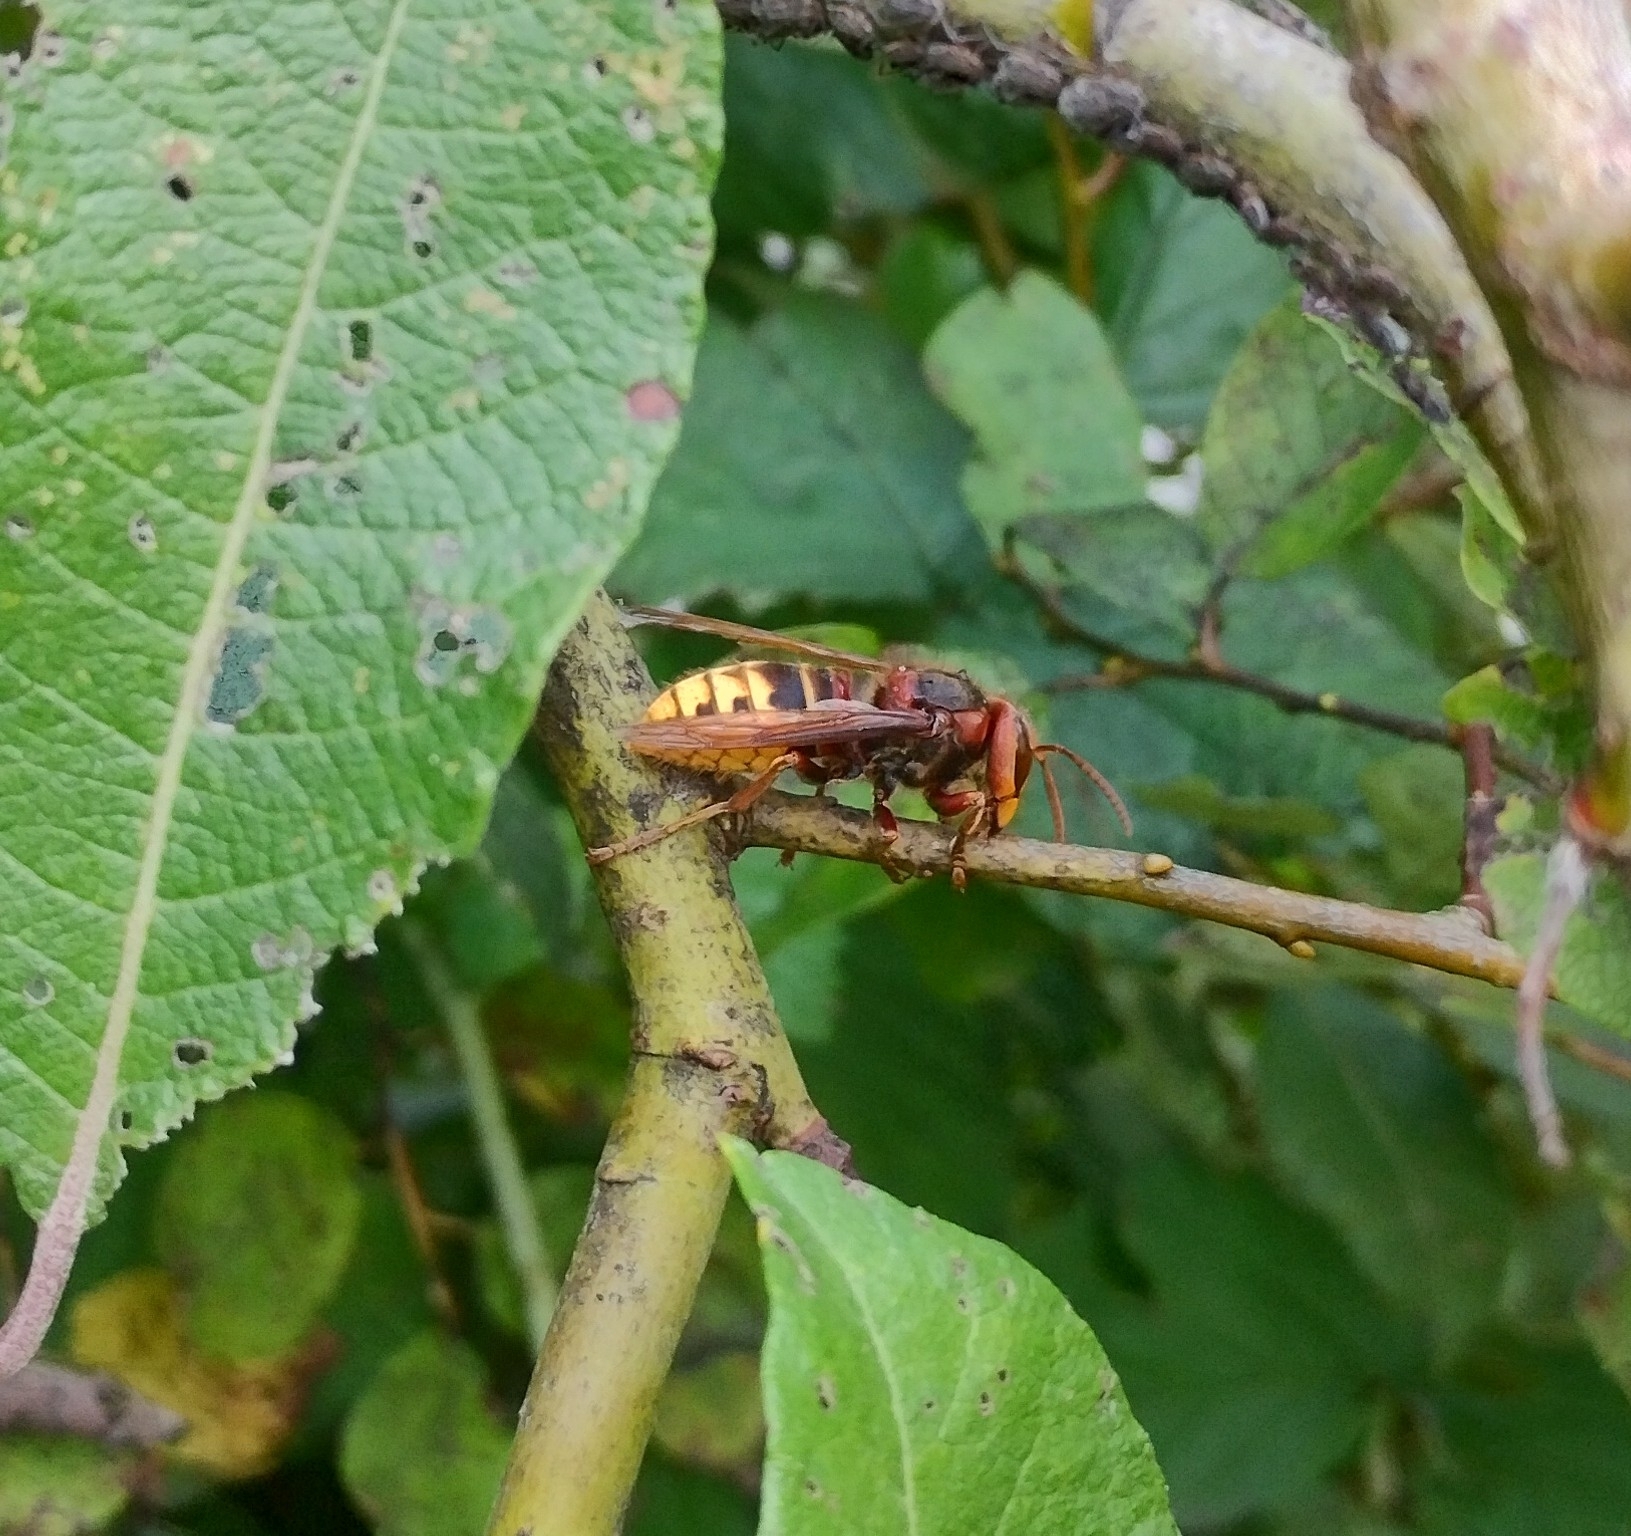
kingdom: Animalia
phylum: Arthropoda
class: Insecta
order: Hymenoptera
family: Vespidae
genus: Vespa
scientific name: Vespa crabro
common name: Hornet
